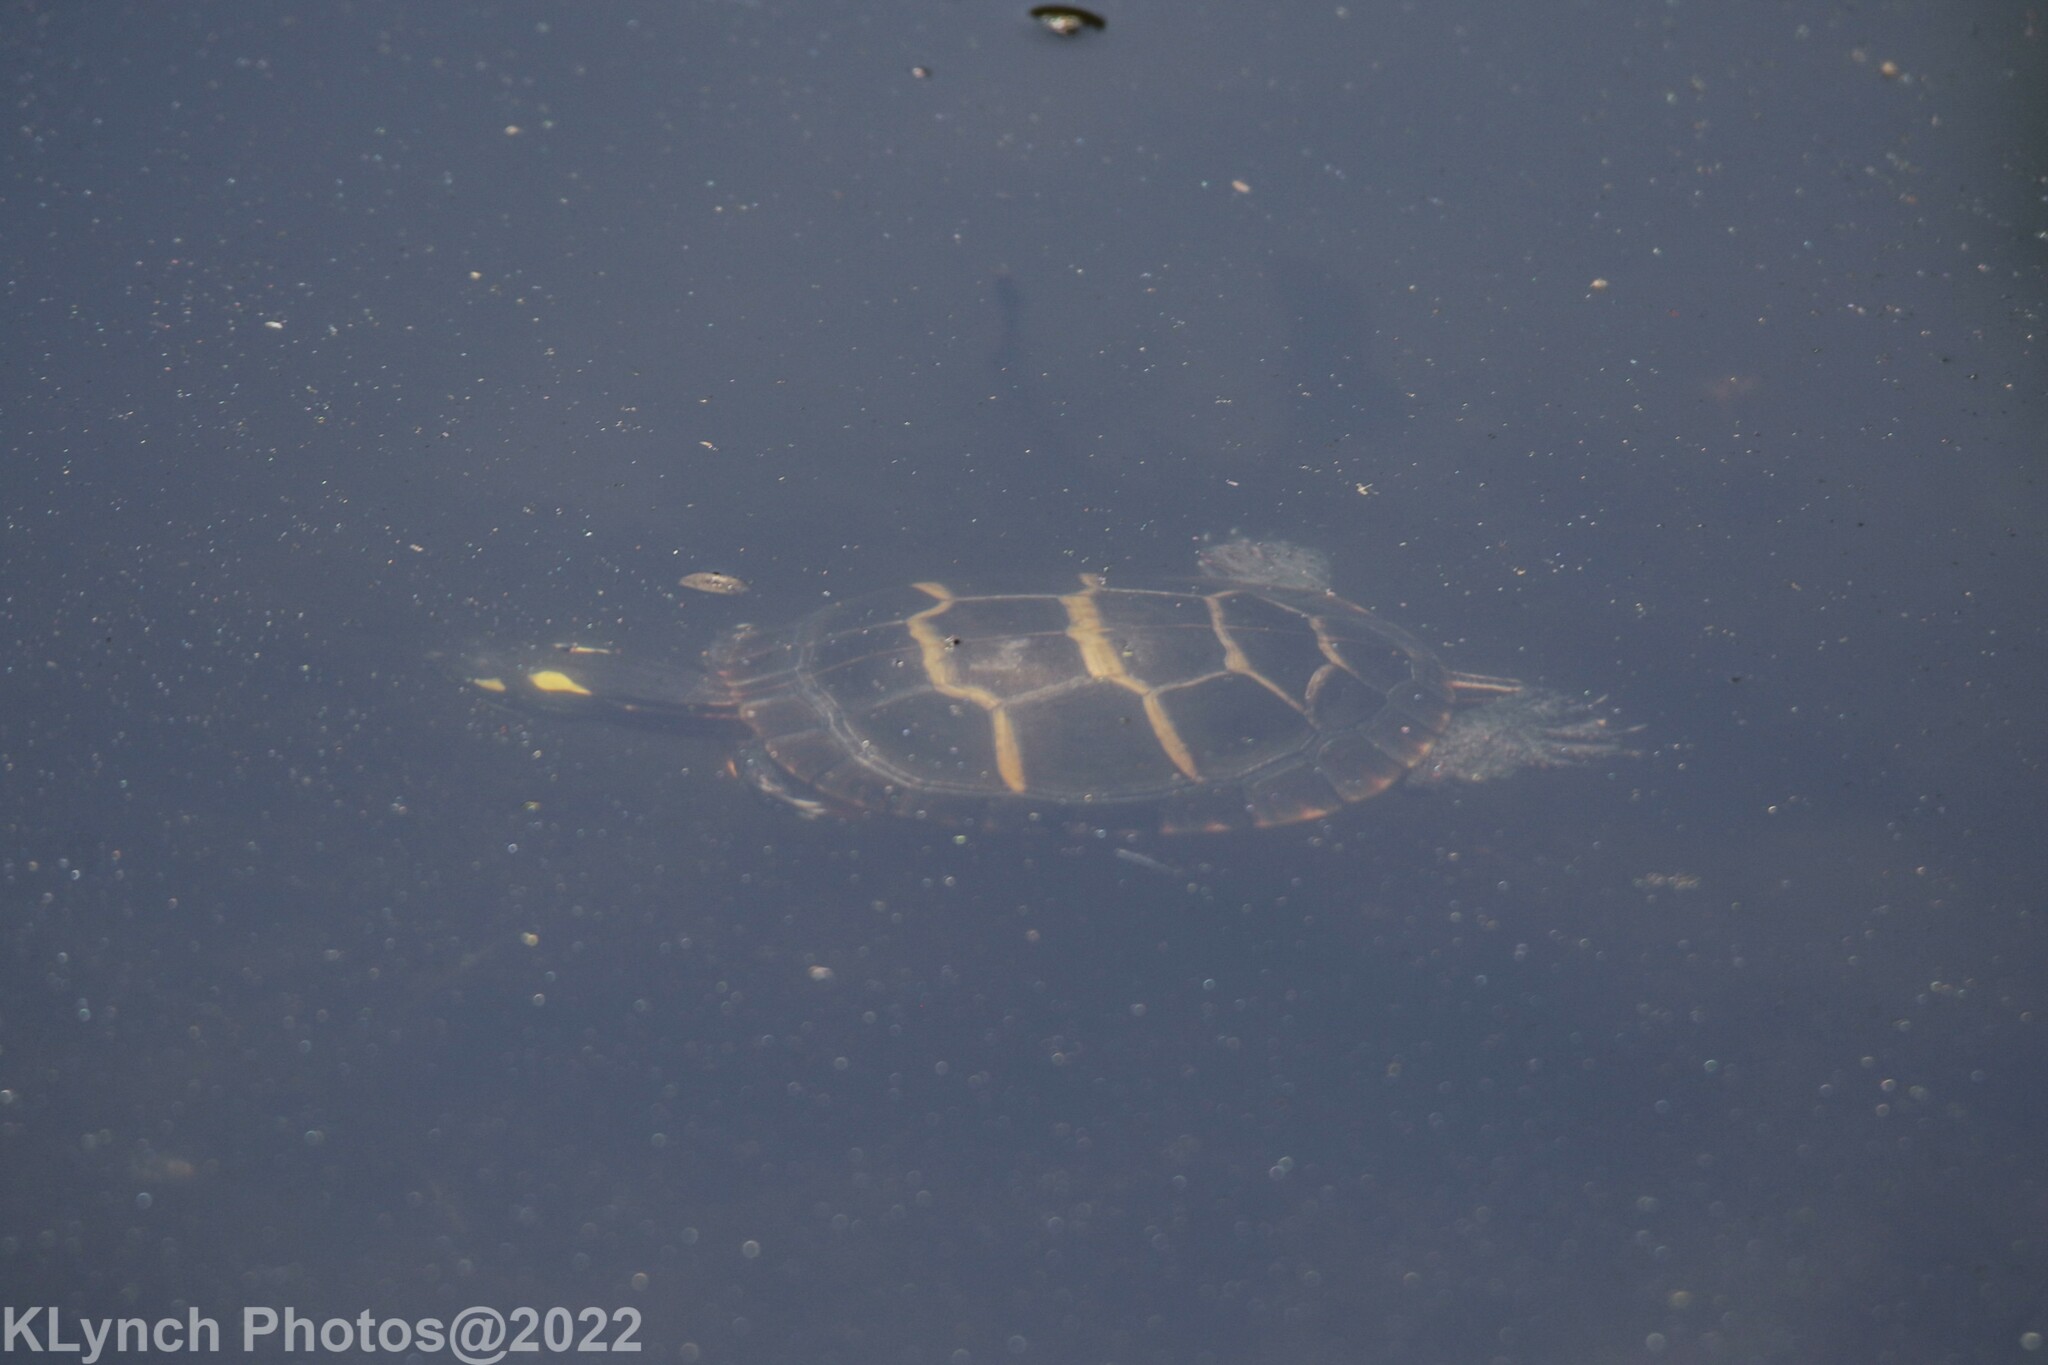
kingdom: Animalia
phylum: Chordata
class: Testudines
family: Emydidae
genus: Chrysemys
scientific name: Chrysemys picta
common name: Painted turtle
